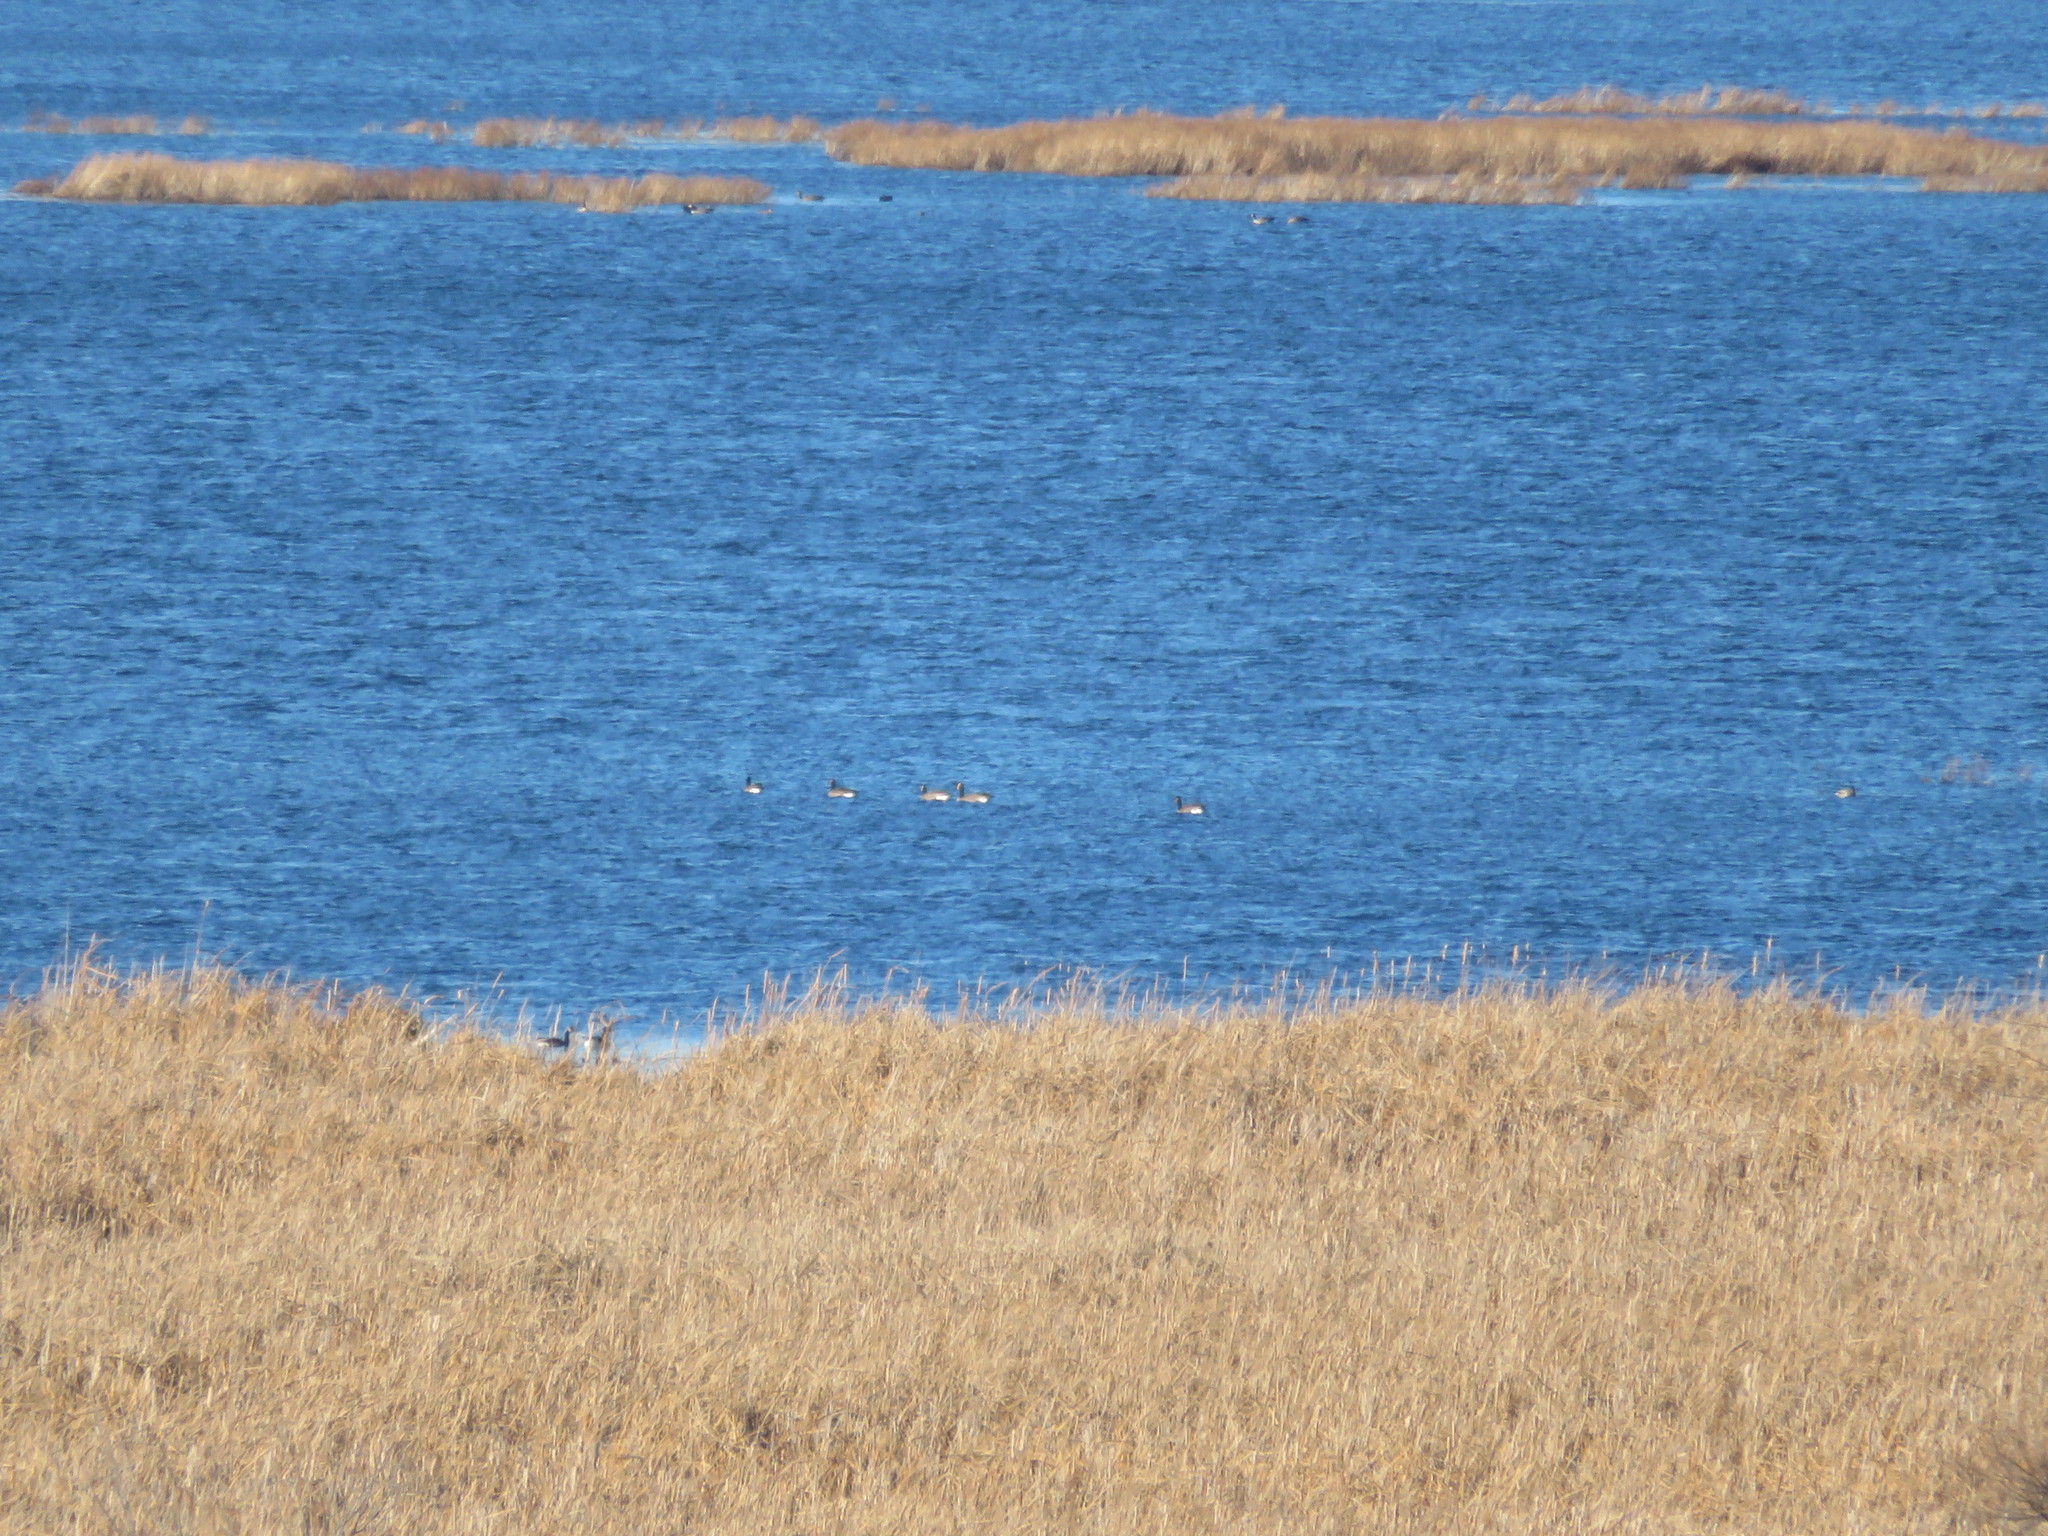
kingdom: Animalia
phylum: Chordata
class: Aves
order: Anseriformes
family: Anatidae
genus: Branta
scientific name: Branta canadensis
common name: Canada goose
